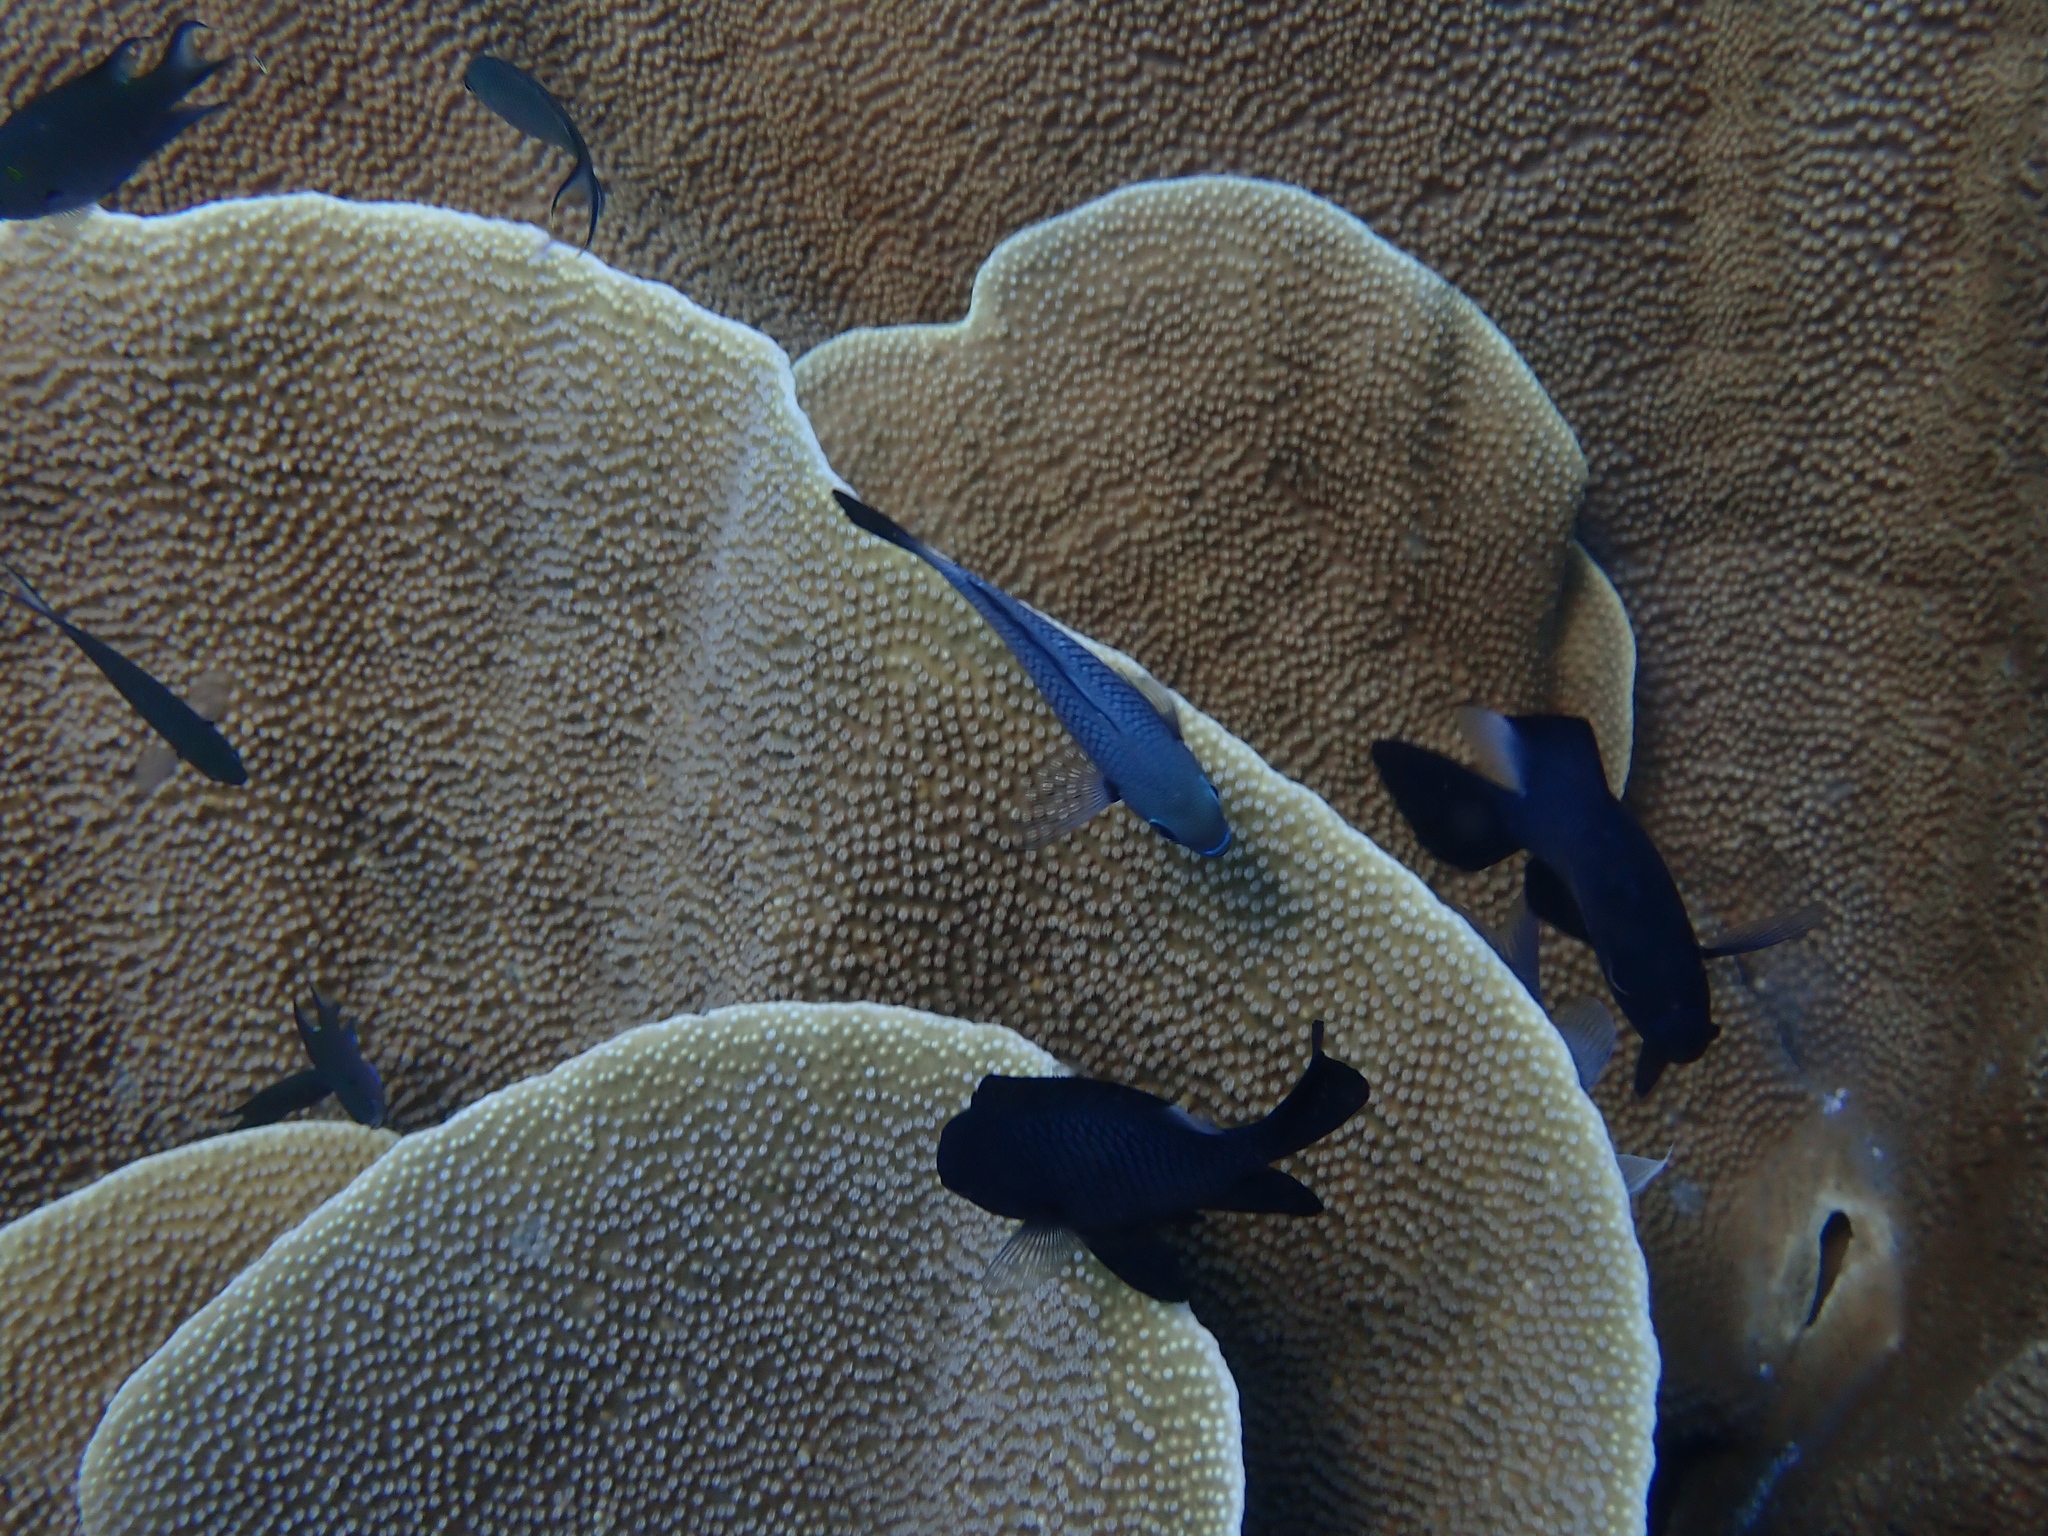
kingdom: Animalia
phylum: Chordata
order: Perciformes
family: Pomacentridae
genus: Dascyllus
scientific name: Dascyllus trimaculatus
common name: Threespot dascyllus
